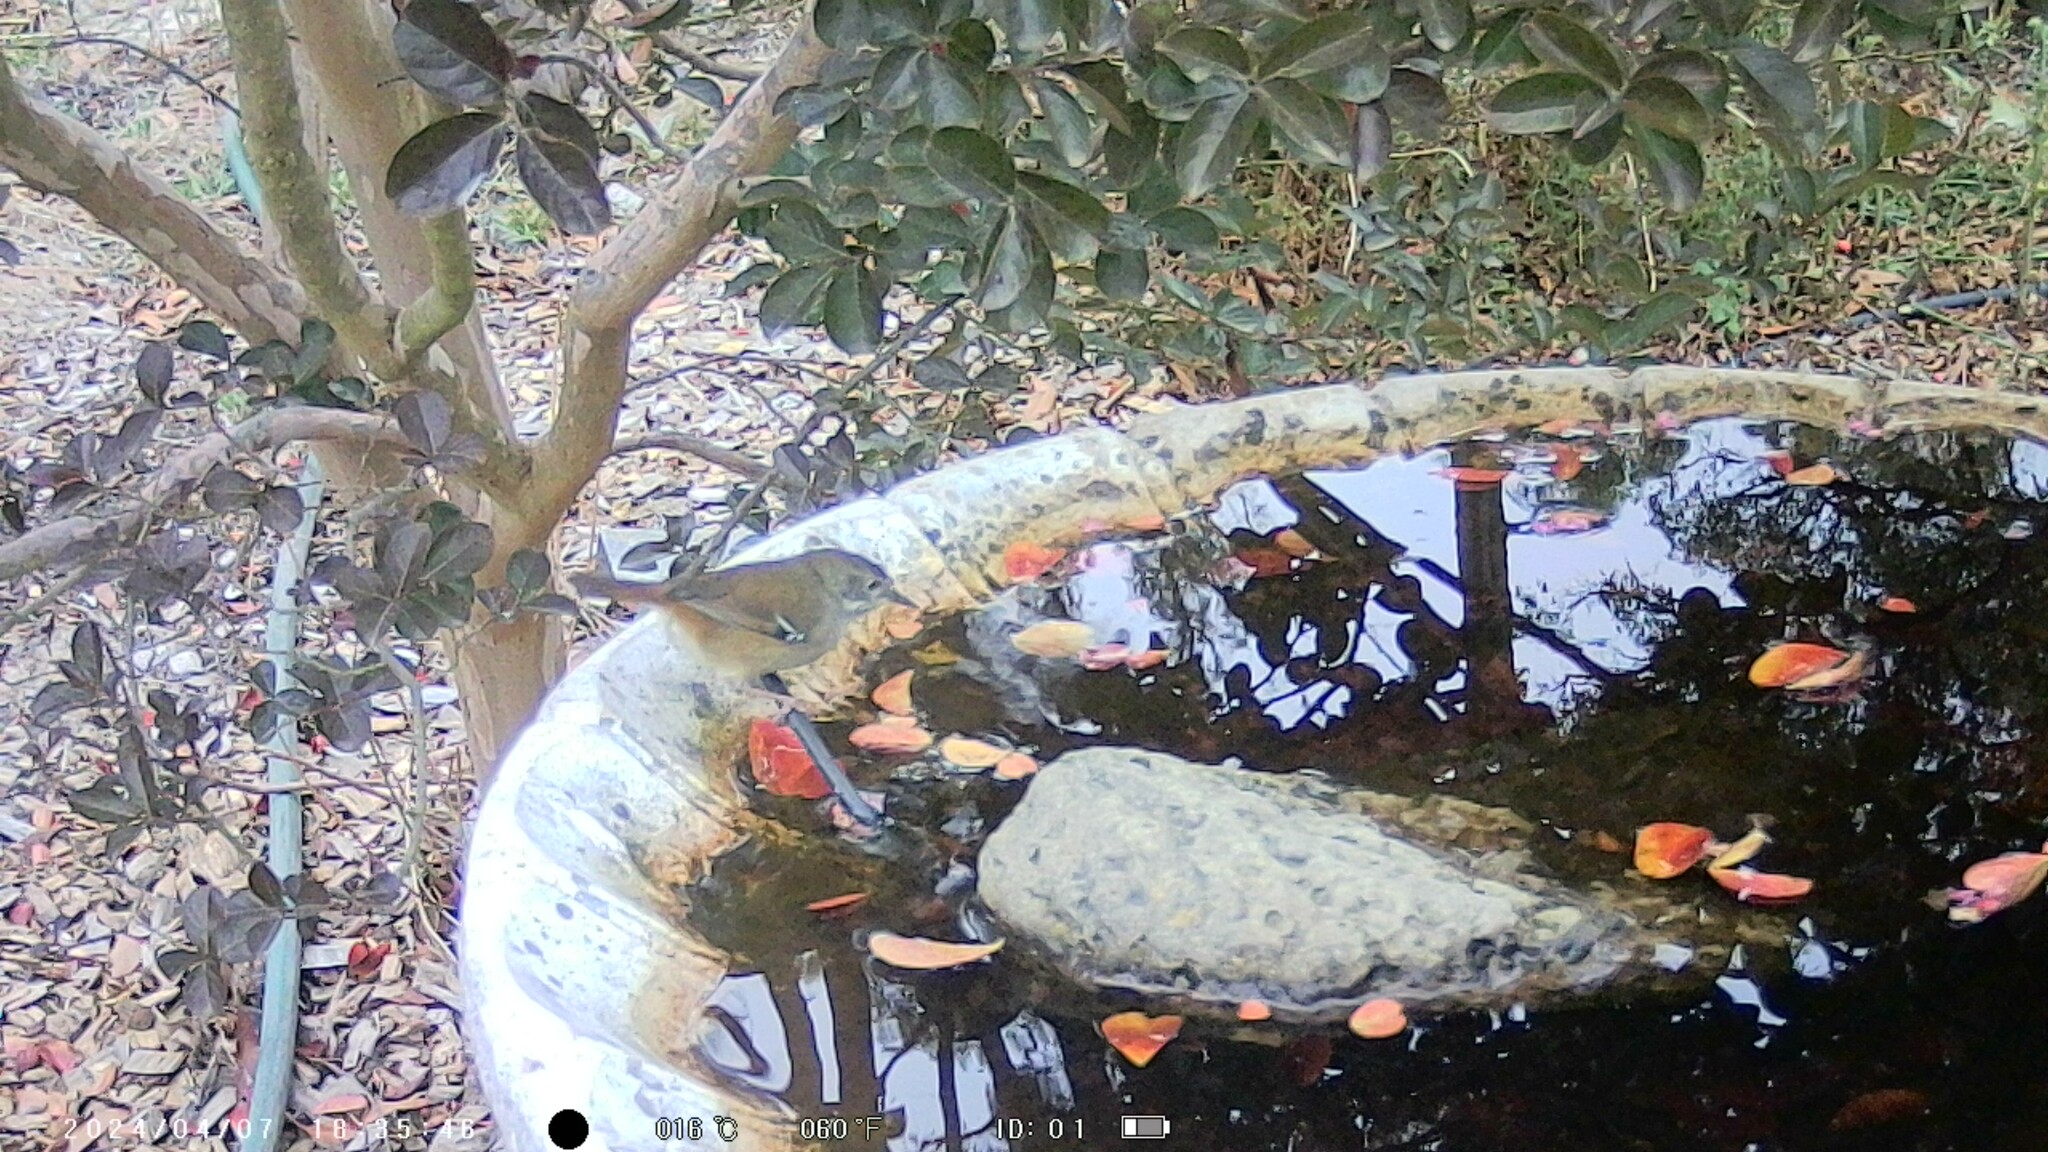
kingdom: Animalia
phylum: Chordata
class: Aves
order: Passeriformes
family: Acanthizidae
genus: Sericornis
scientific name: Sericornis frontalis
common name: White-browed scrubwren
